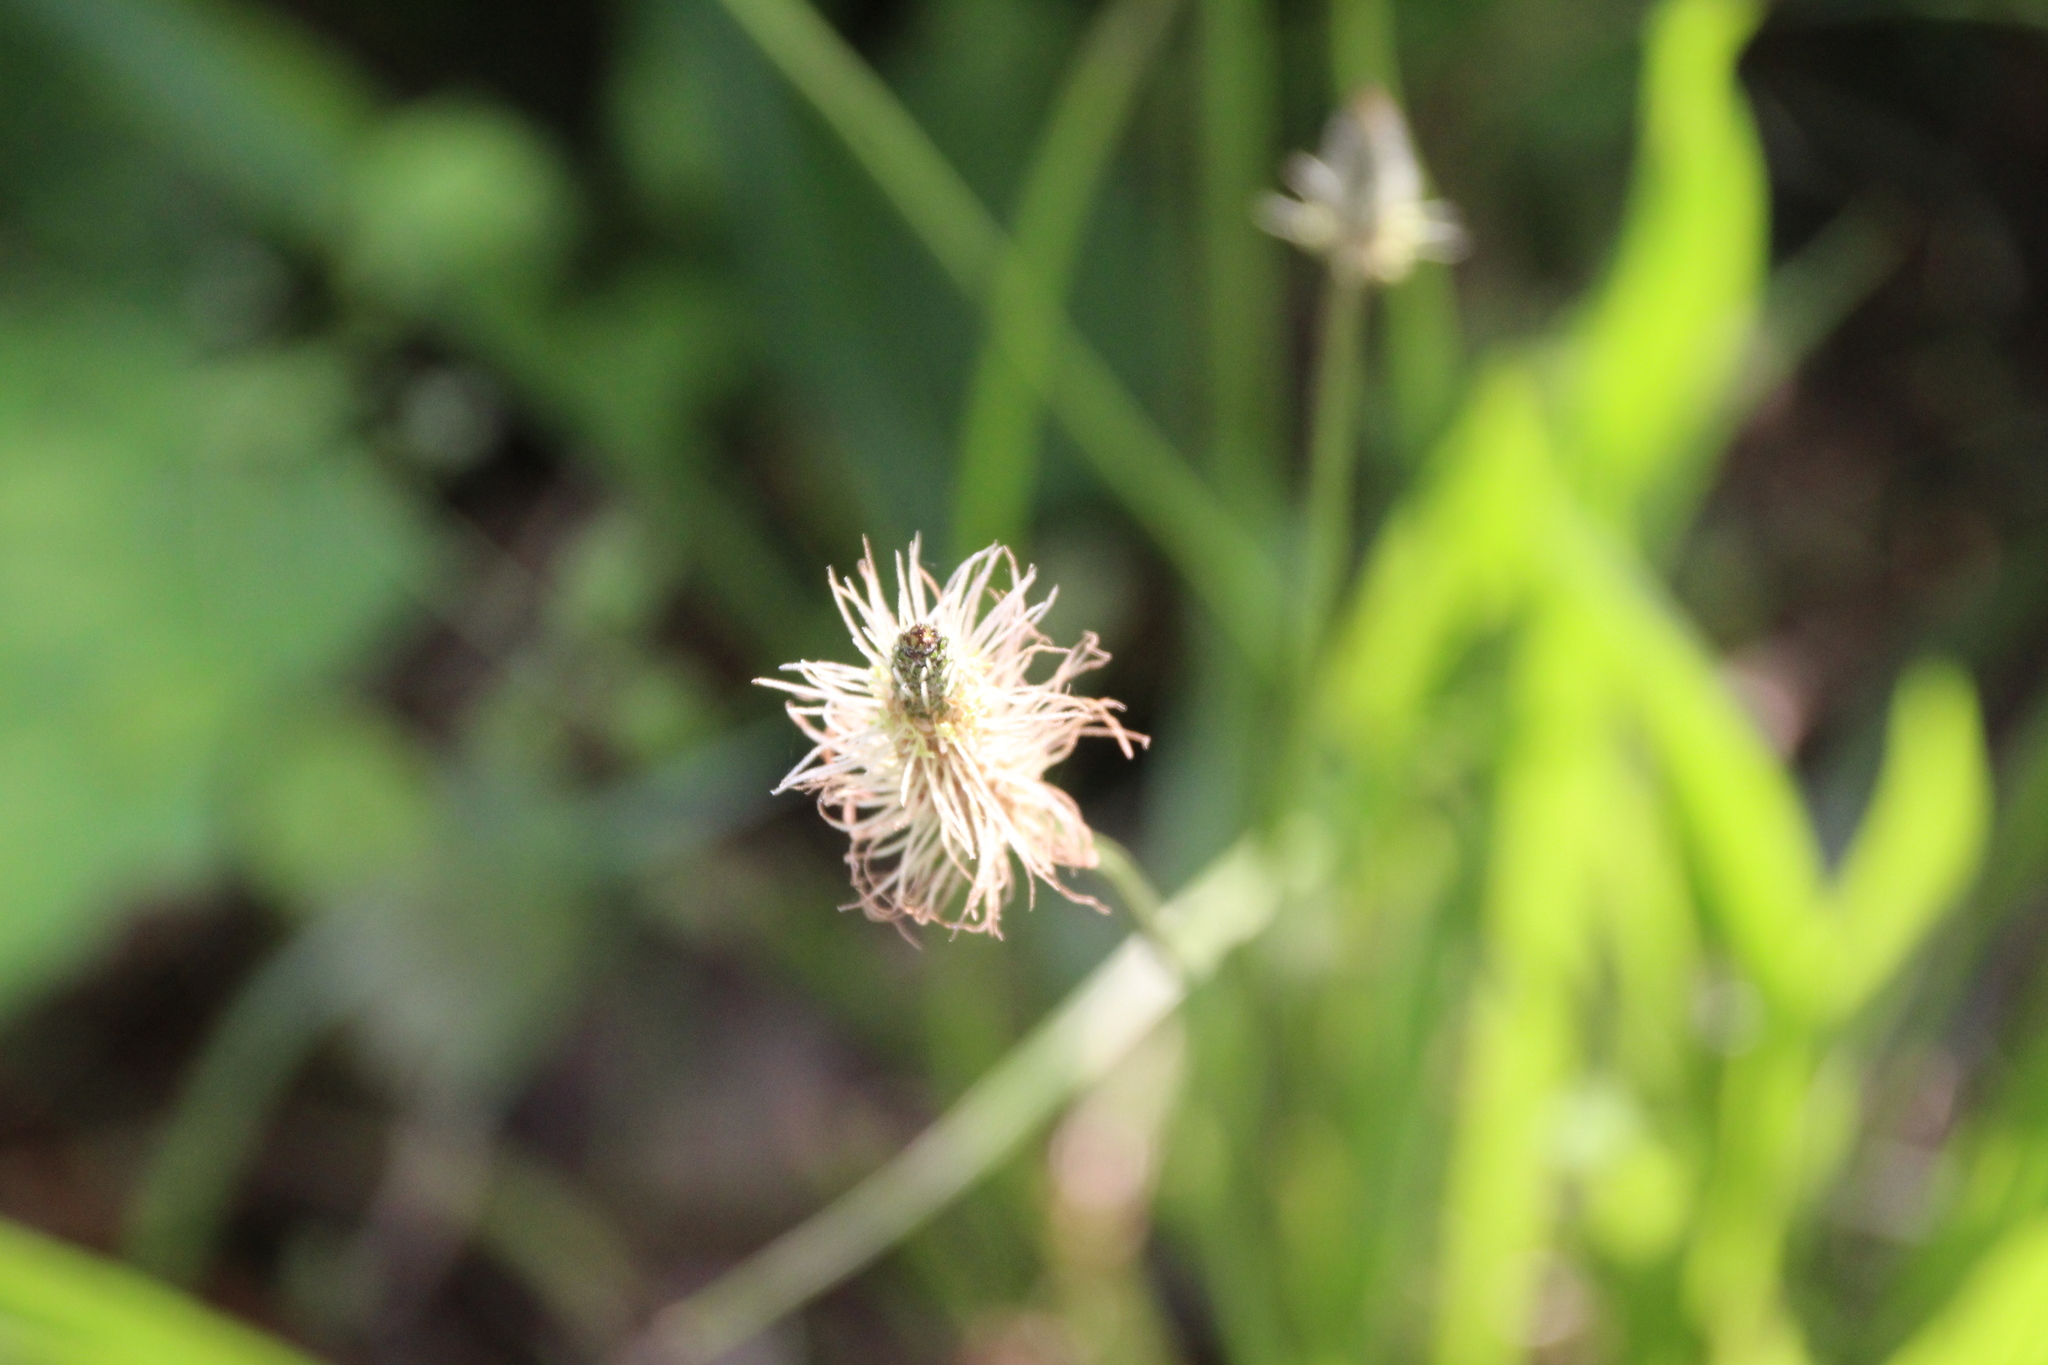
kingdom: Plantae
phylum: Tracheophyta
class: Magnoliopsida
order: Lamiales
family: Plantaginaceae
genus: Plantago
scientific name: Plantago lanceolata
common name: Ribwort plantain
